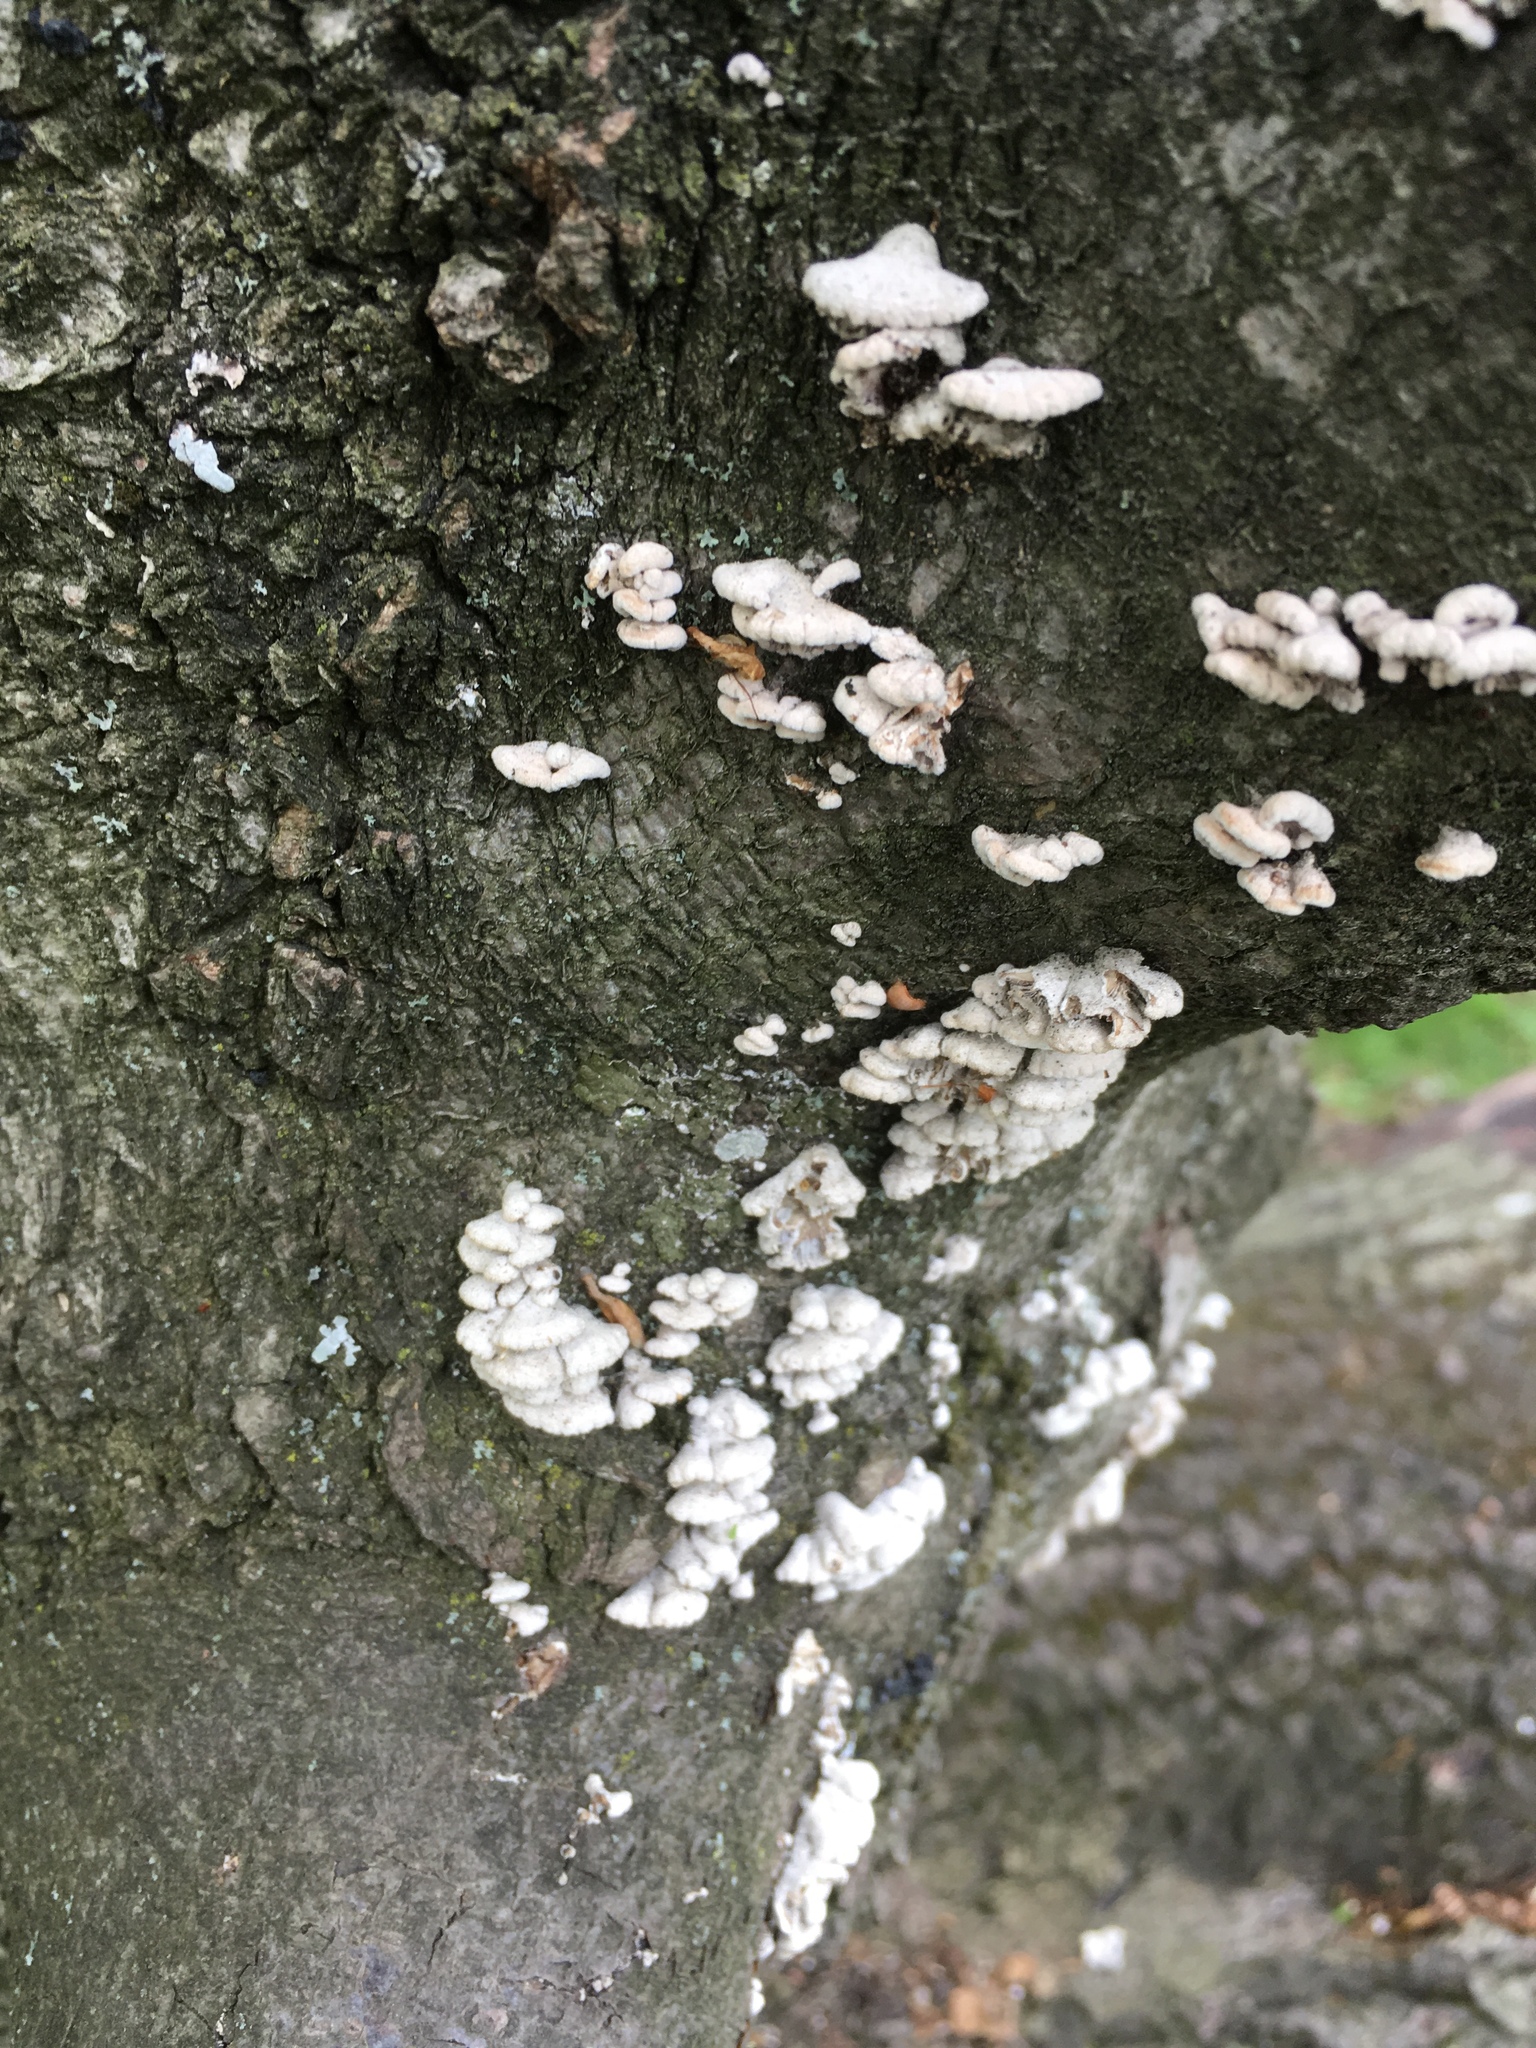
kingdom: Fungi
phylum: Basidiomycota
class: Agaricomycetes
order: Agaricales
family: Schizophyllaceae
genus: Schizophyllum
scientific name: Schizophyllum commune
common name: Common porecrust
